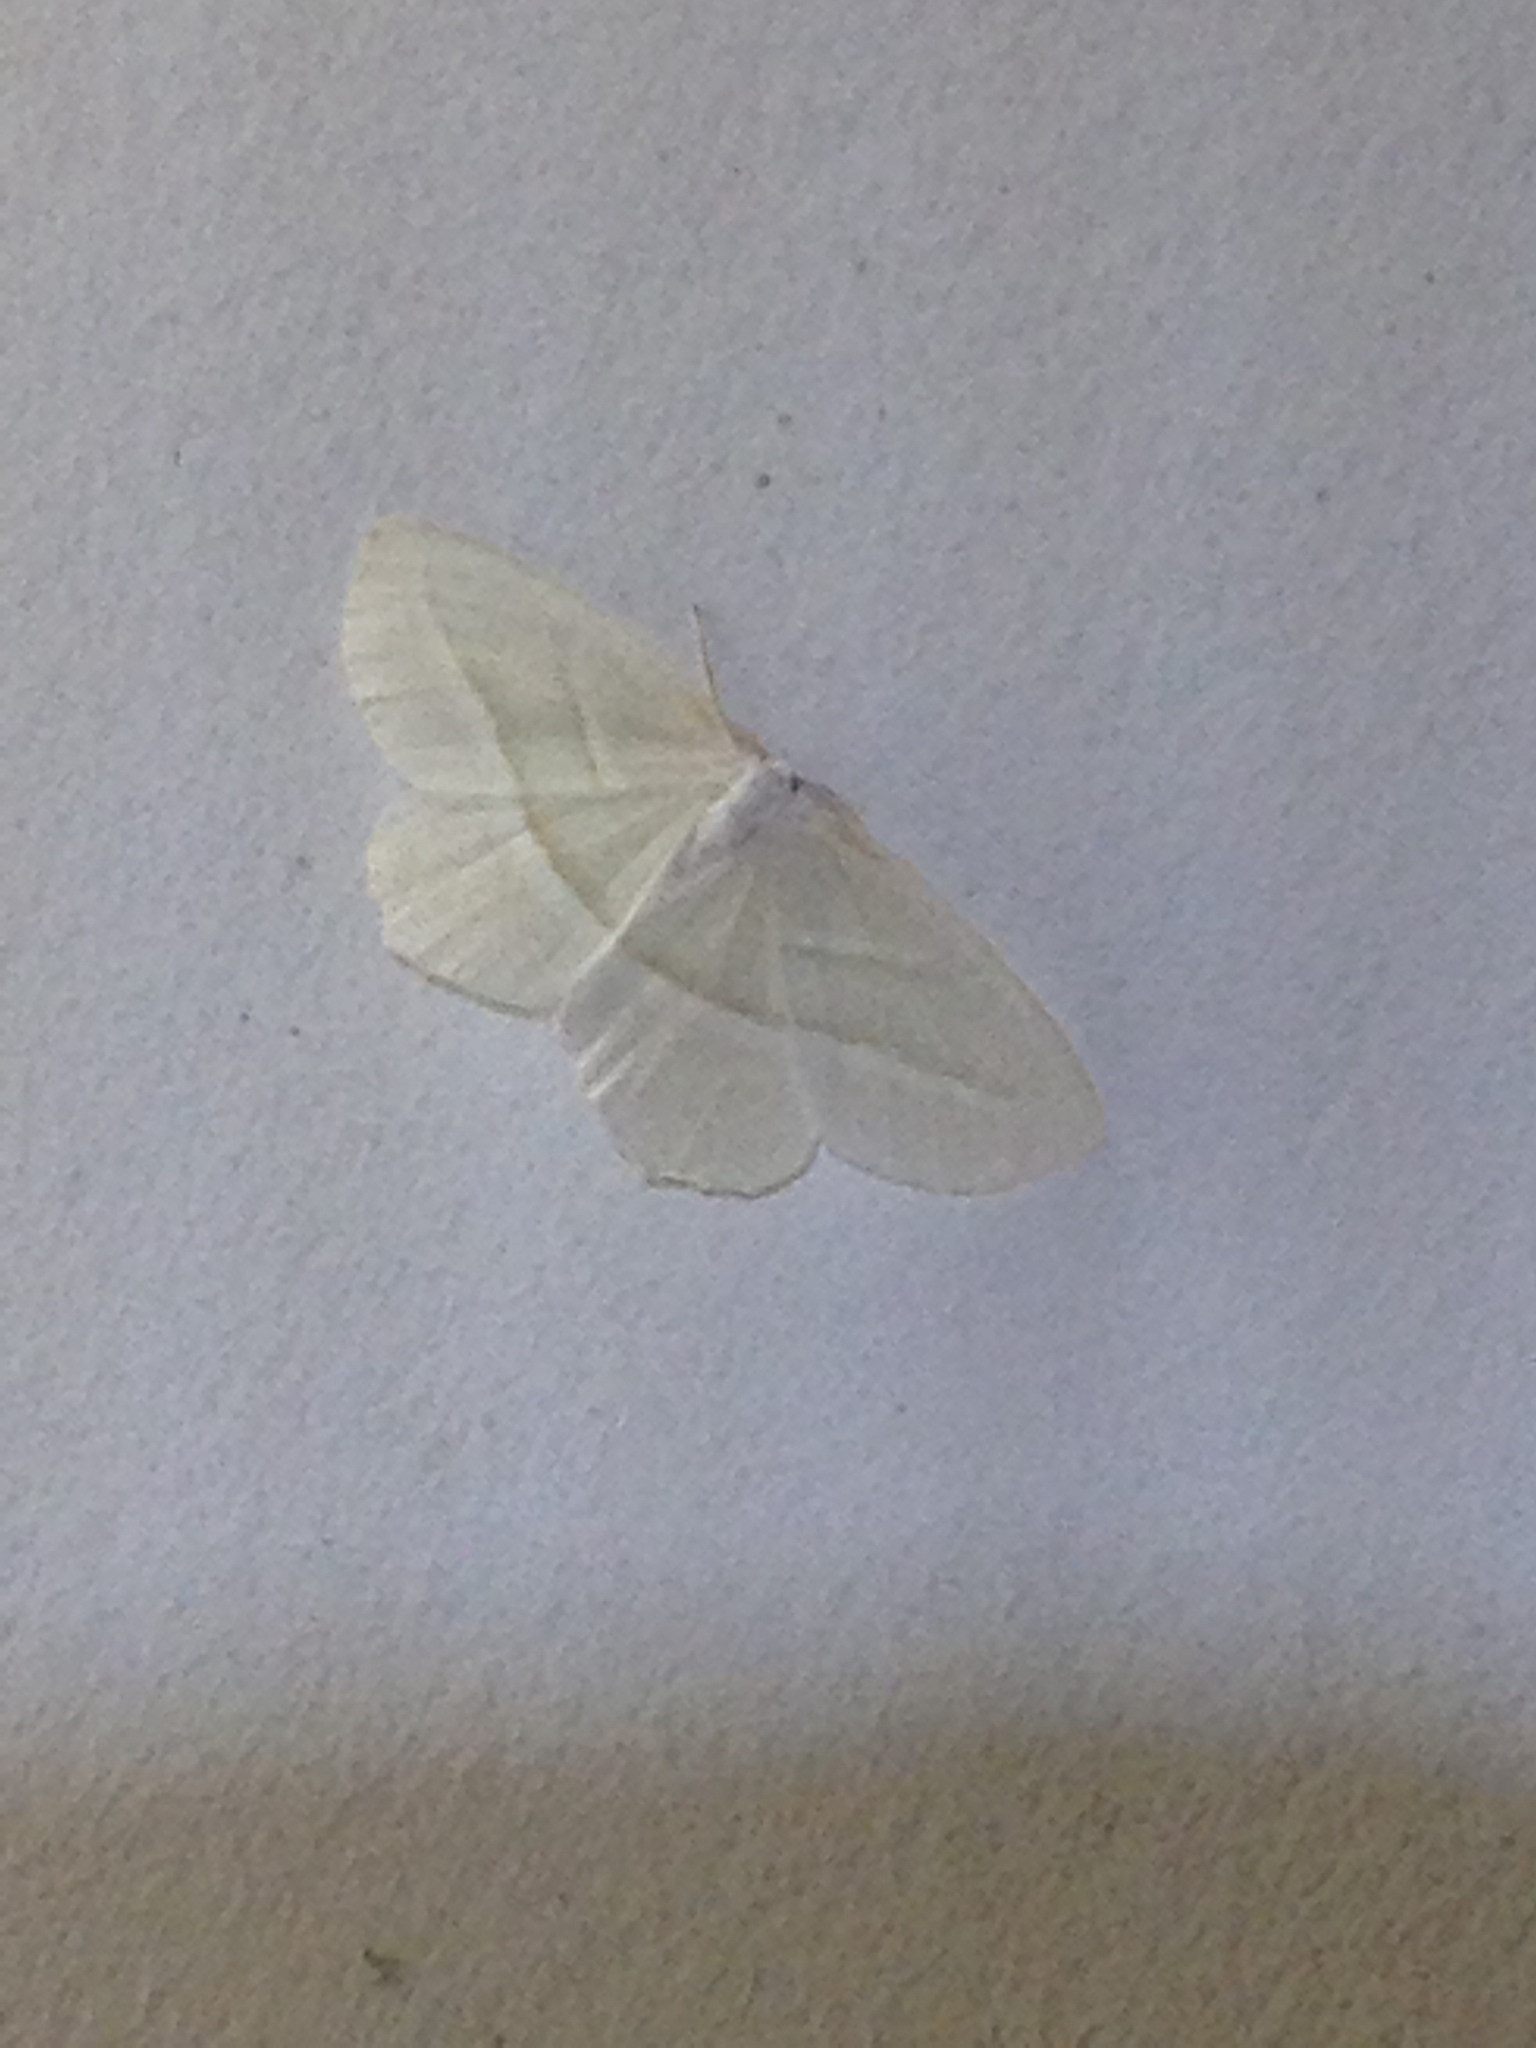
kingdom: Animalia
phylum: Arthropoda
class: Insecta
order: Lepidoptera
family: Geometridae
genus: Campaea
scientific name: Campaea perlata
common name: Fringed looper
